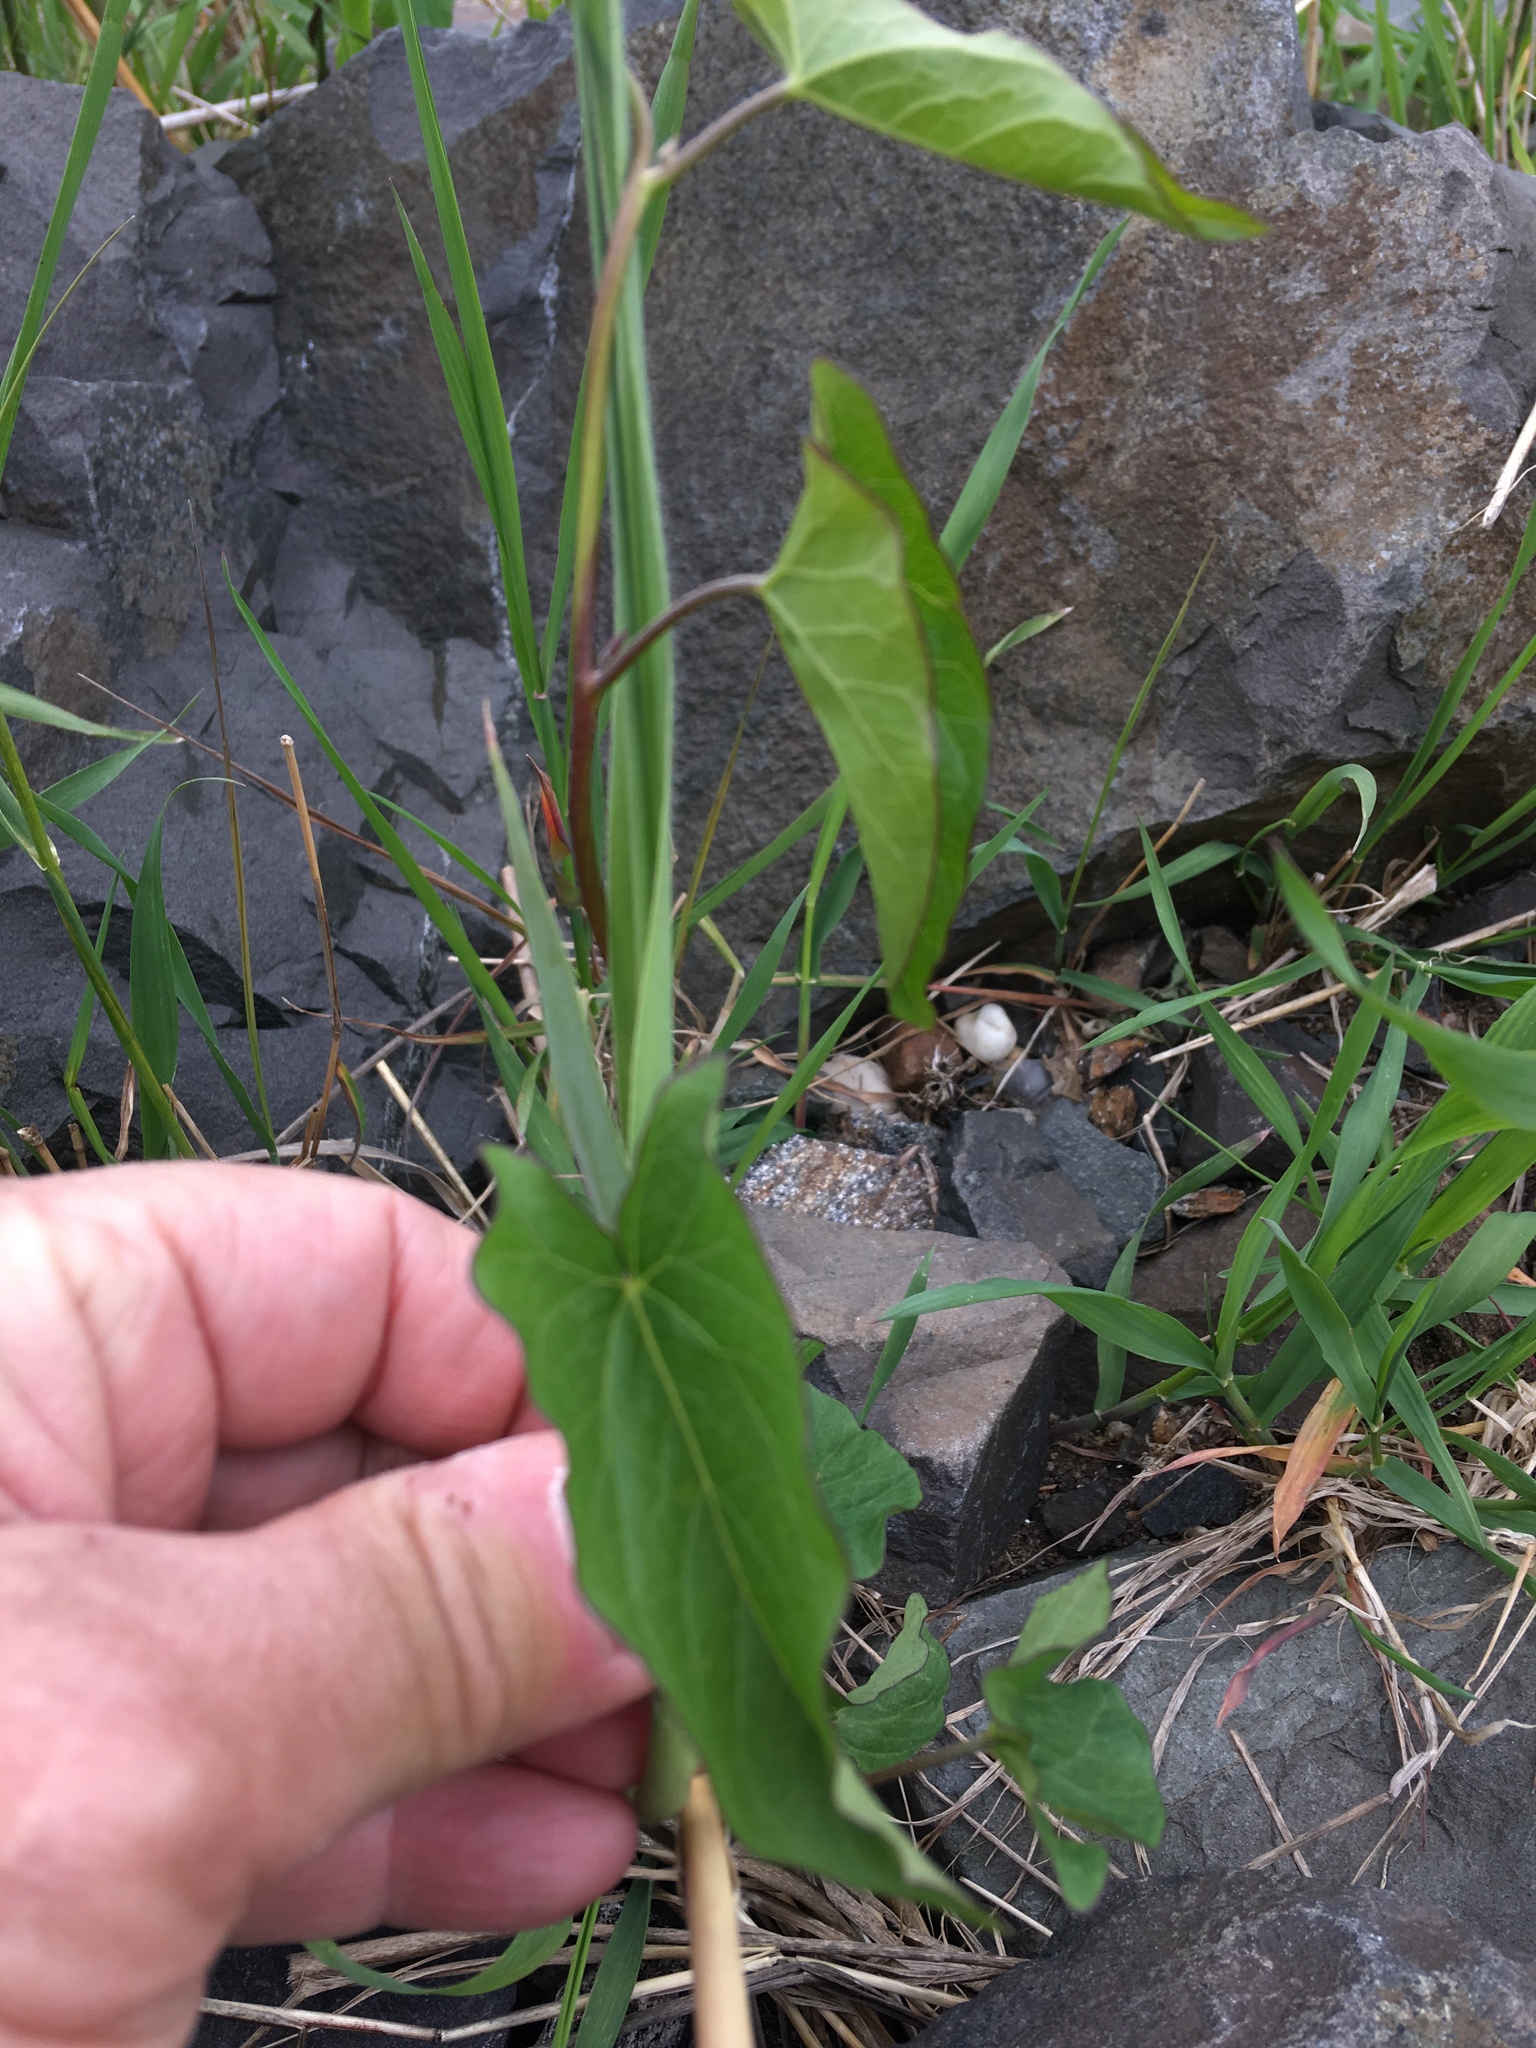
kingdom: Plantae
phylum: Tracheophyta
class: Magnoliopsida
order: Solanales
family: Convolvulaceae
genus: Calystegia
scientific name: Calystegia sepium
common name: Hedge bindweed
